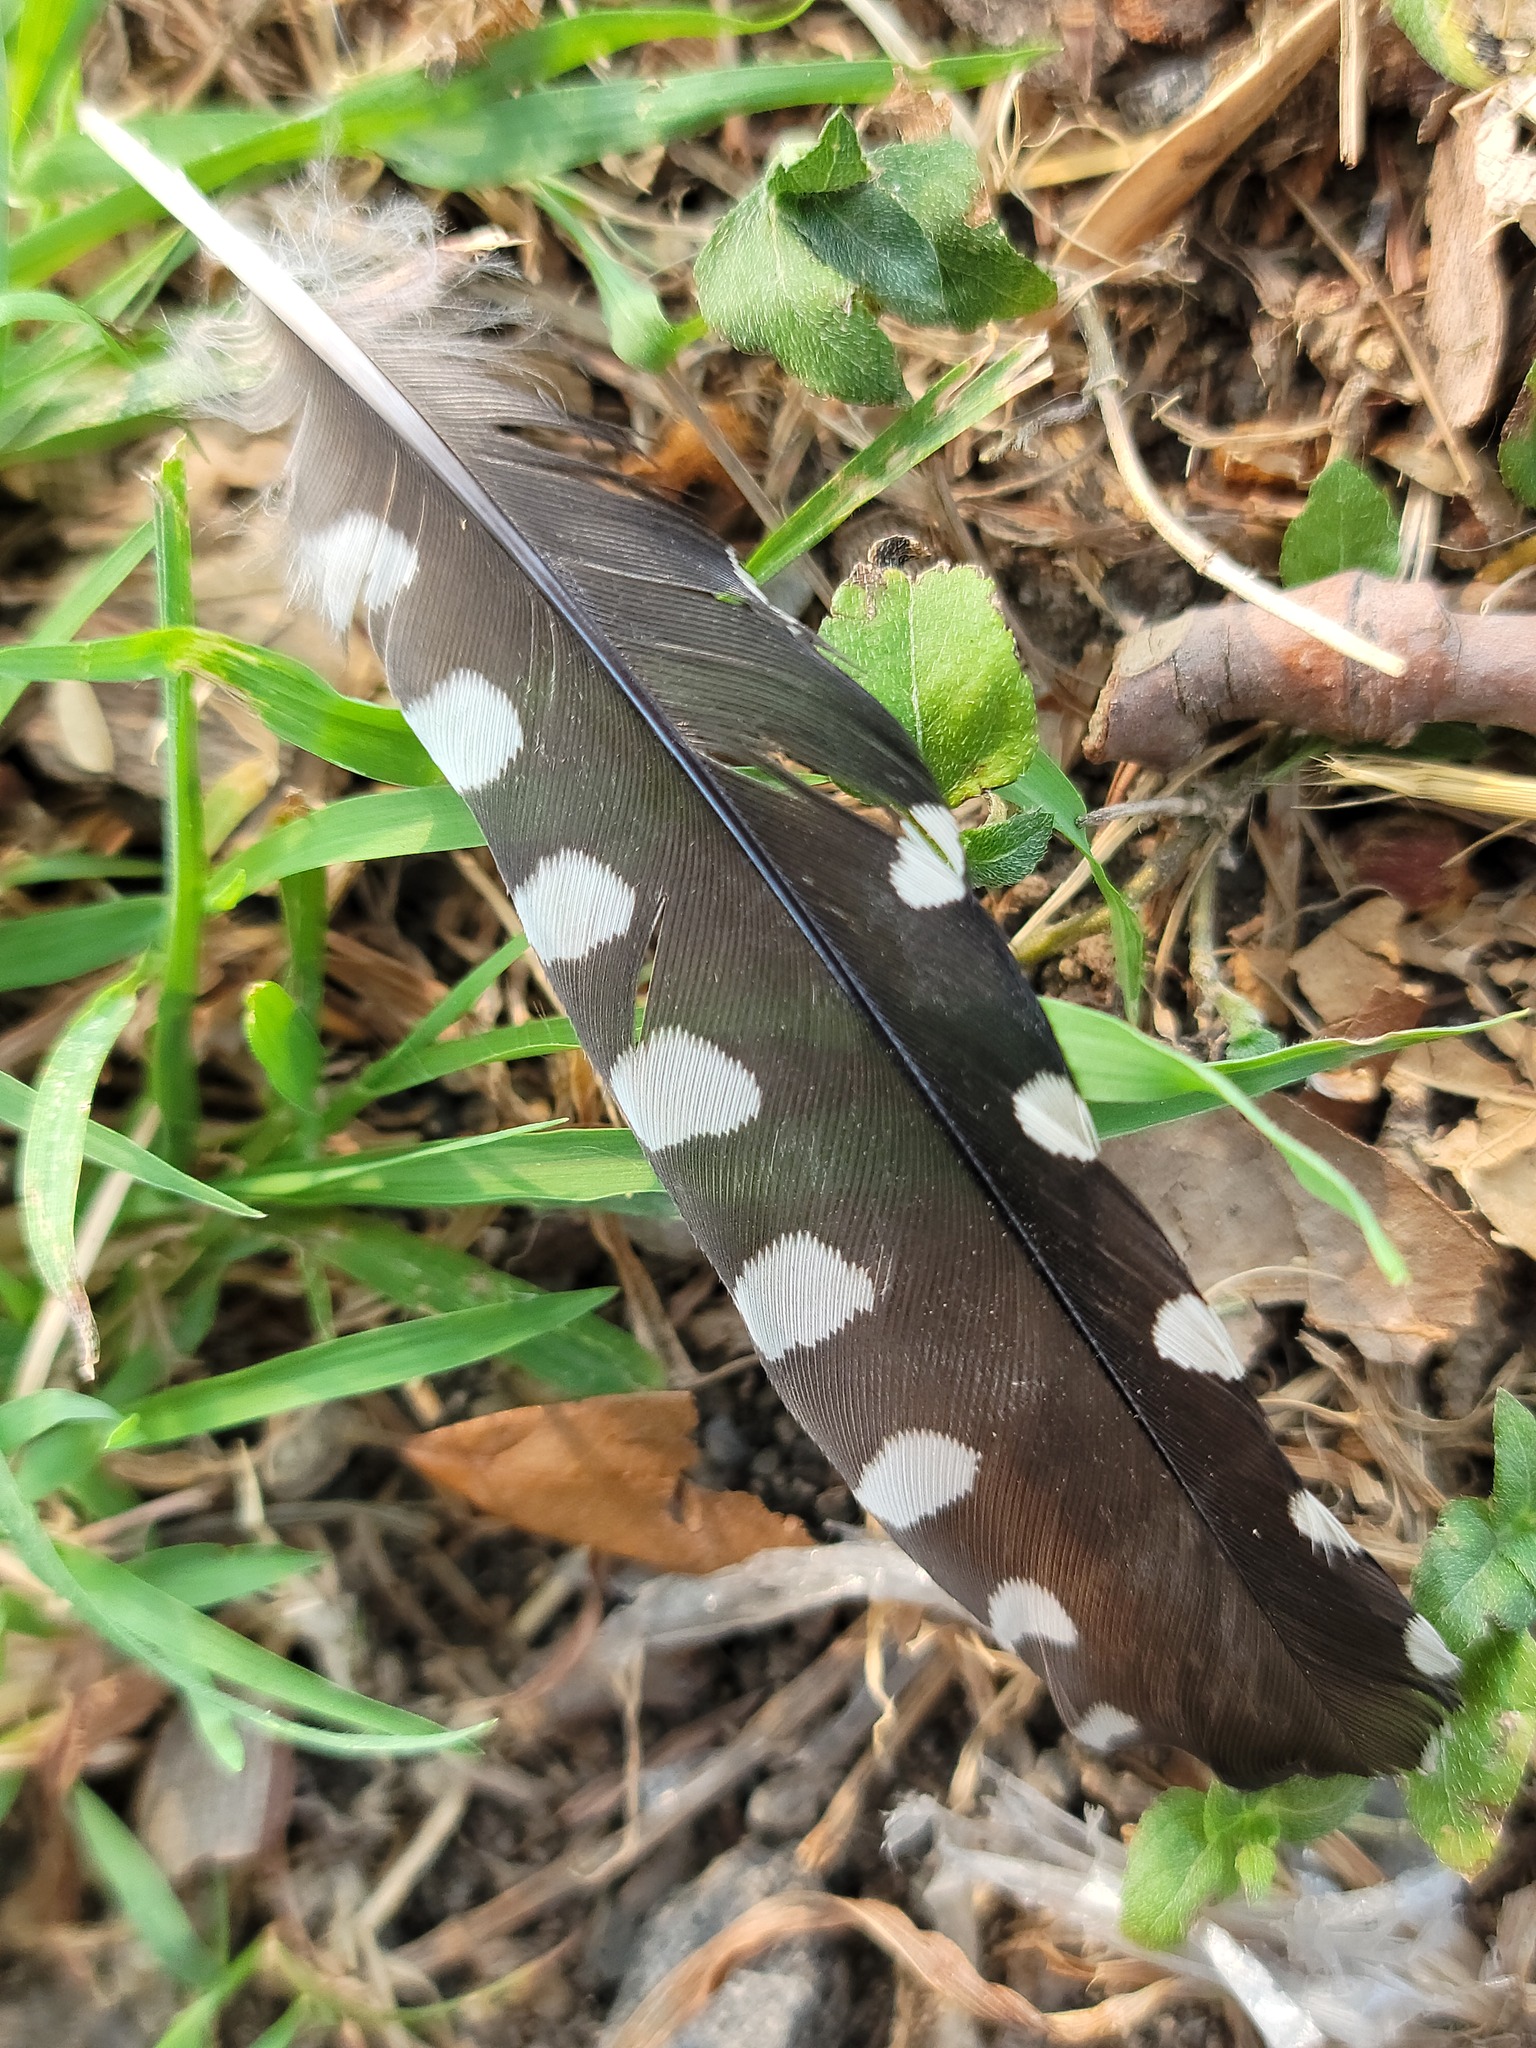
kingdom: Animalia
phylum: Chordata
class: Aves
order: Piciformes
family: Picidae
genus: Dryobates
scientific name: Dryobates scalaris
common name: Ladder-backed woodpecker
